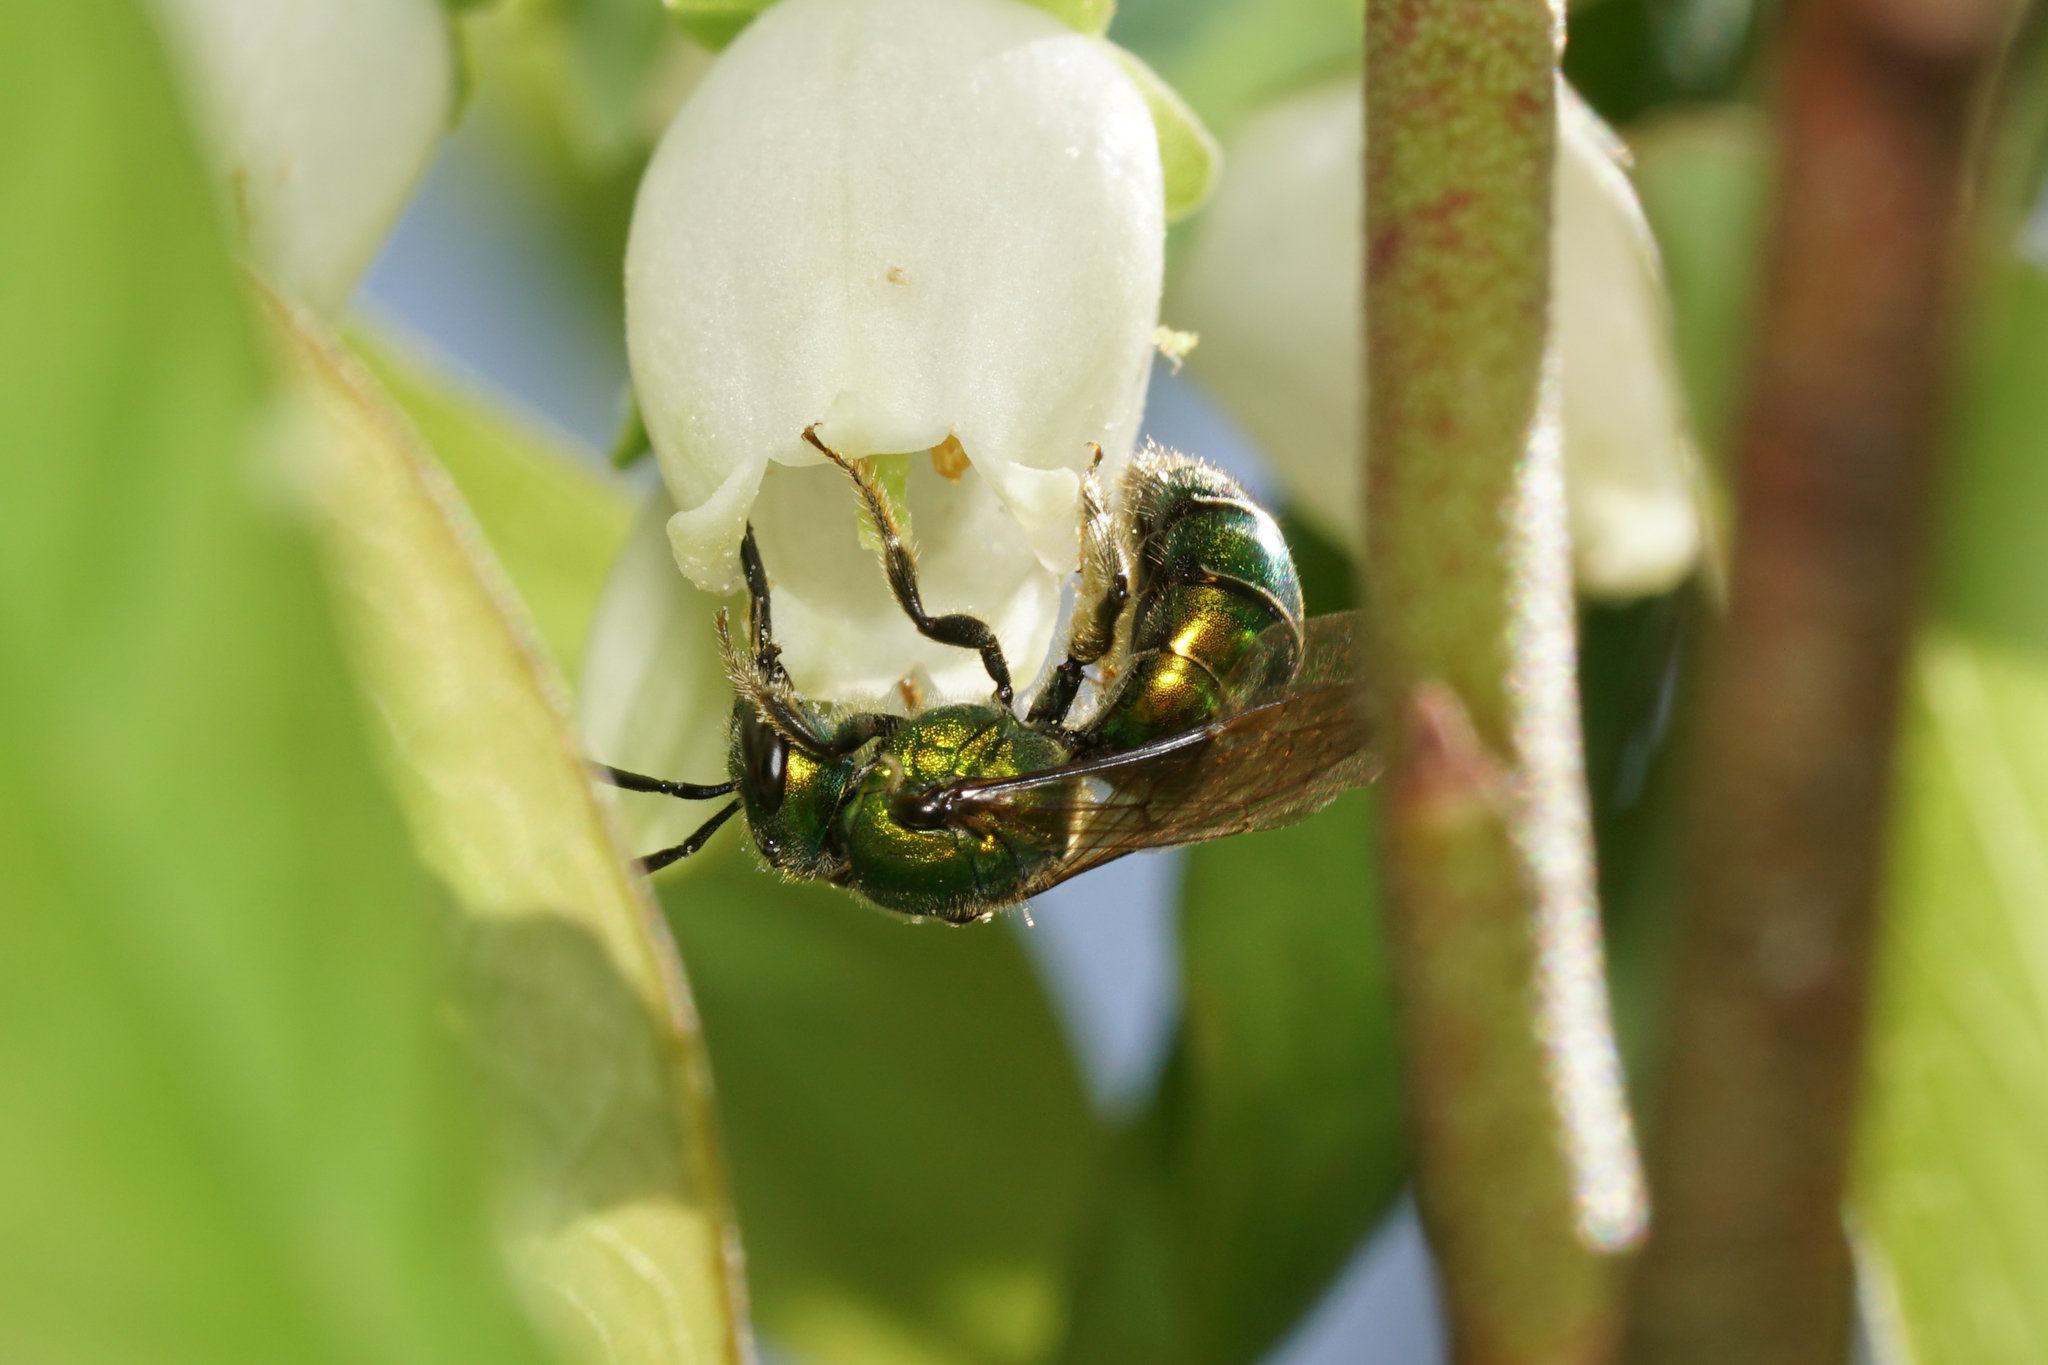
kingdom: Animalia
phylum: Arthropoda
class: Insecta
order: Hymenoptera
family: Halictidae
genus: Augochlora
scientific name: Augochlora pura
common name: Pure green sweat bee
